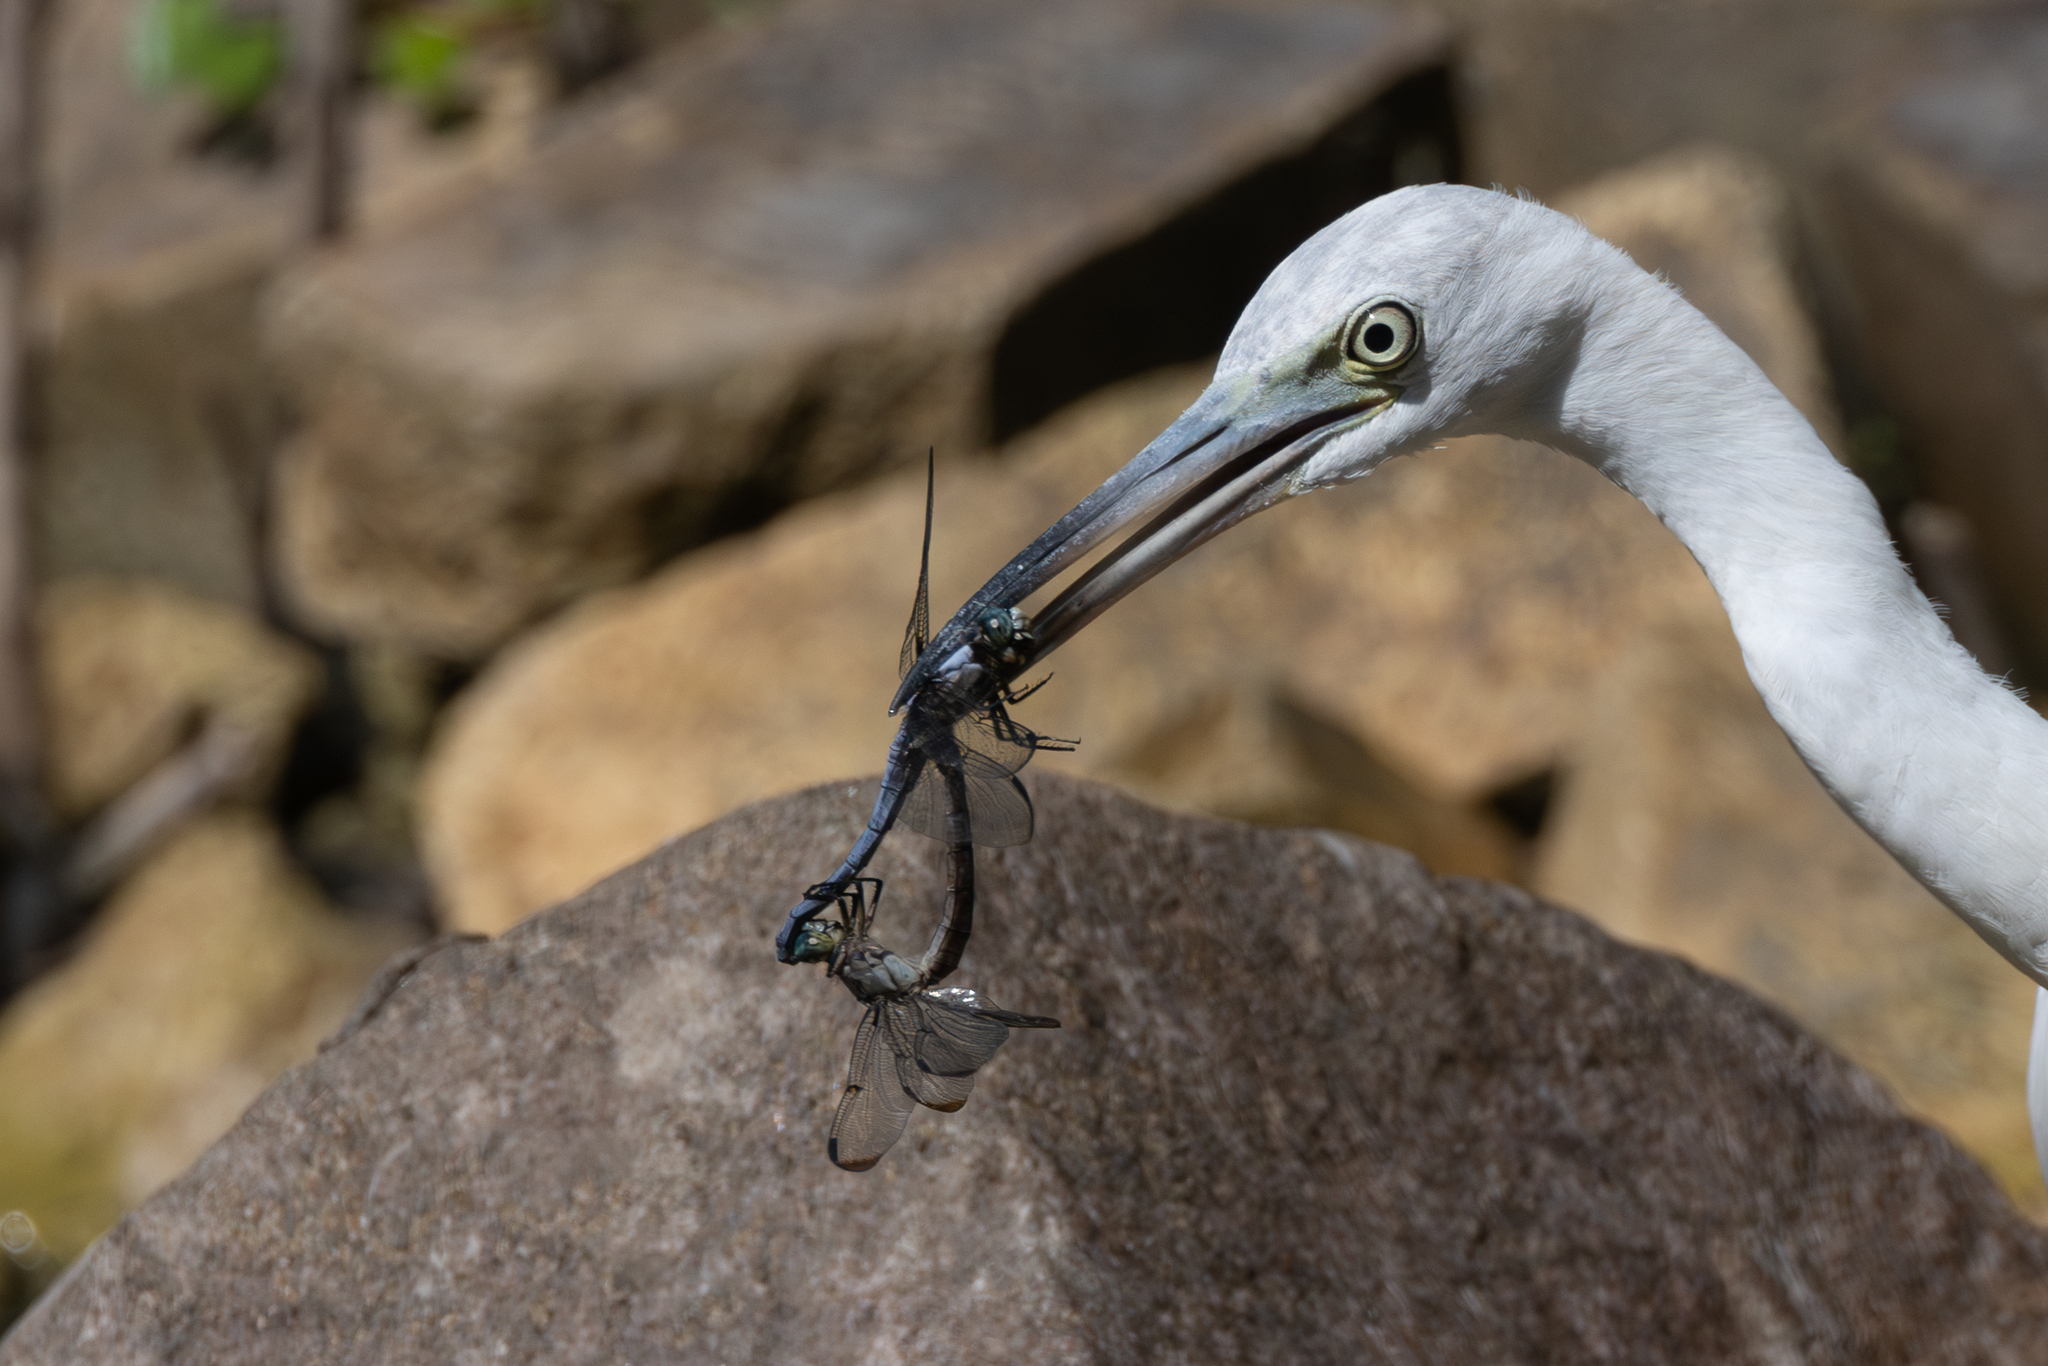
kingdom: Animalia
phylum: Arthropoda
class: Insecta
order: Odonata
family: Libellulidae
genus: Libellula
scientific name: Libellula vibrans
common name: Great blue skimmer
